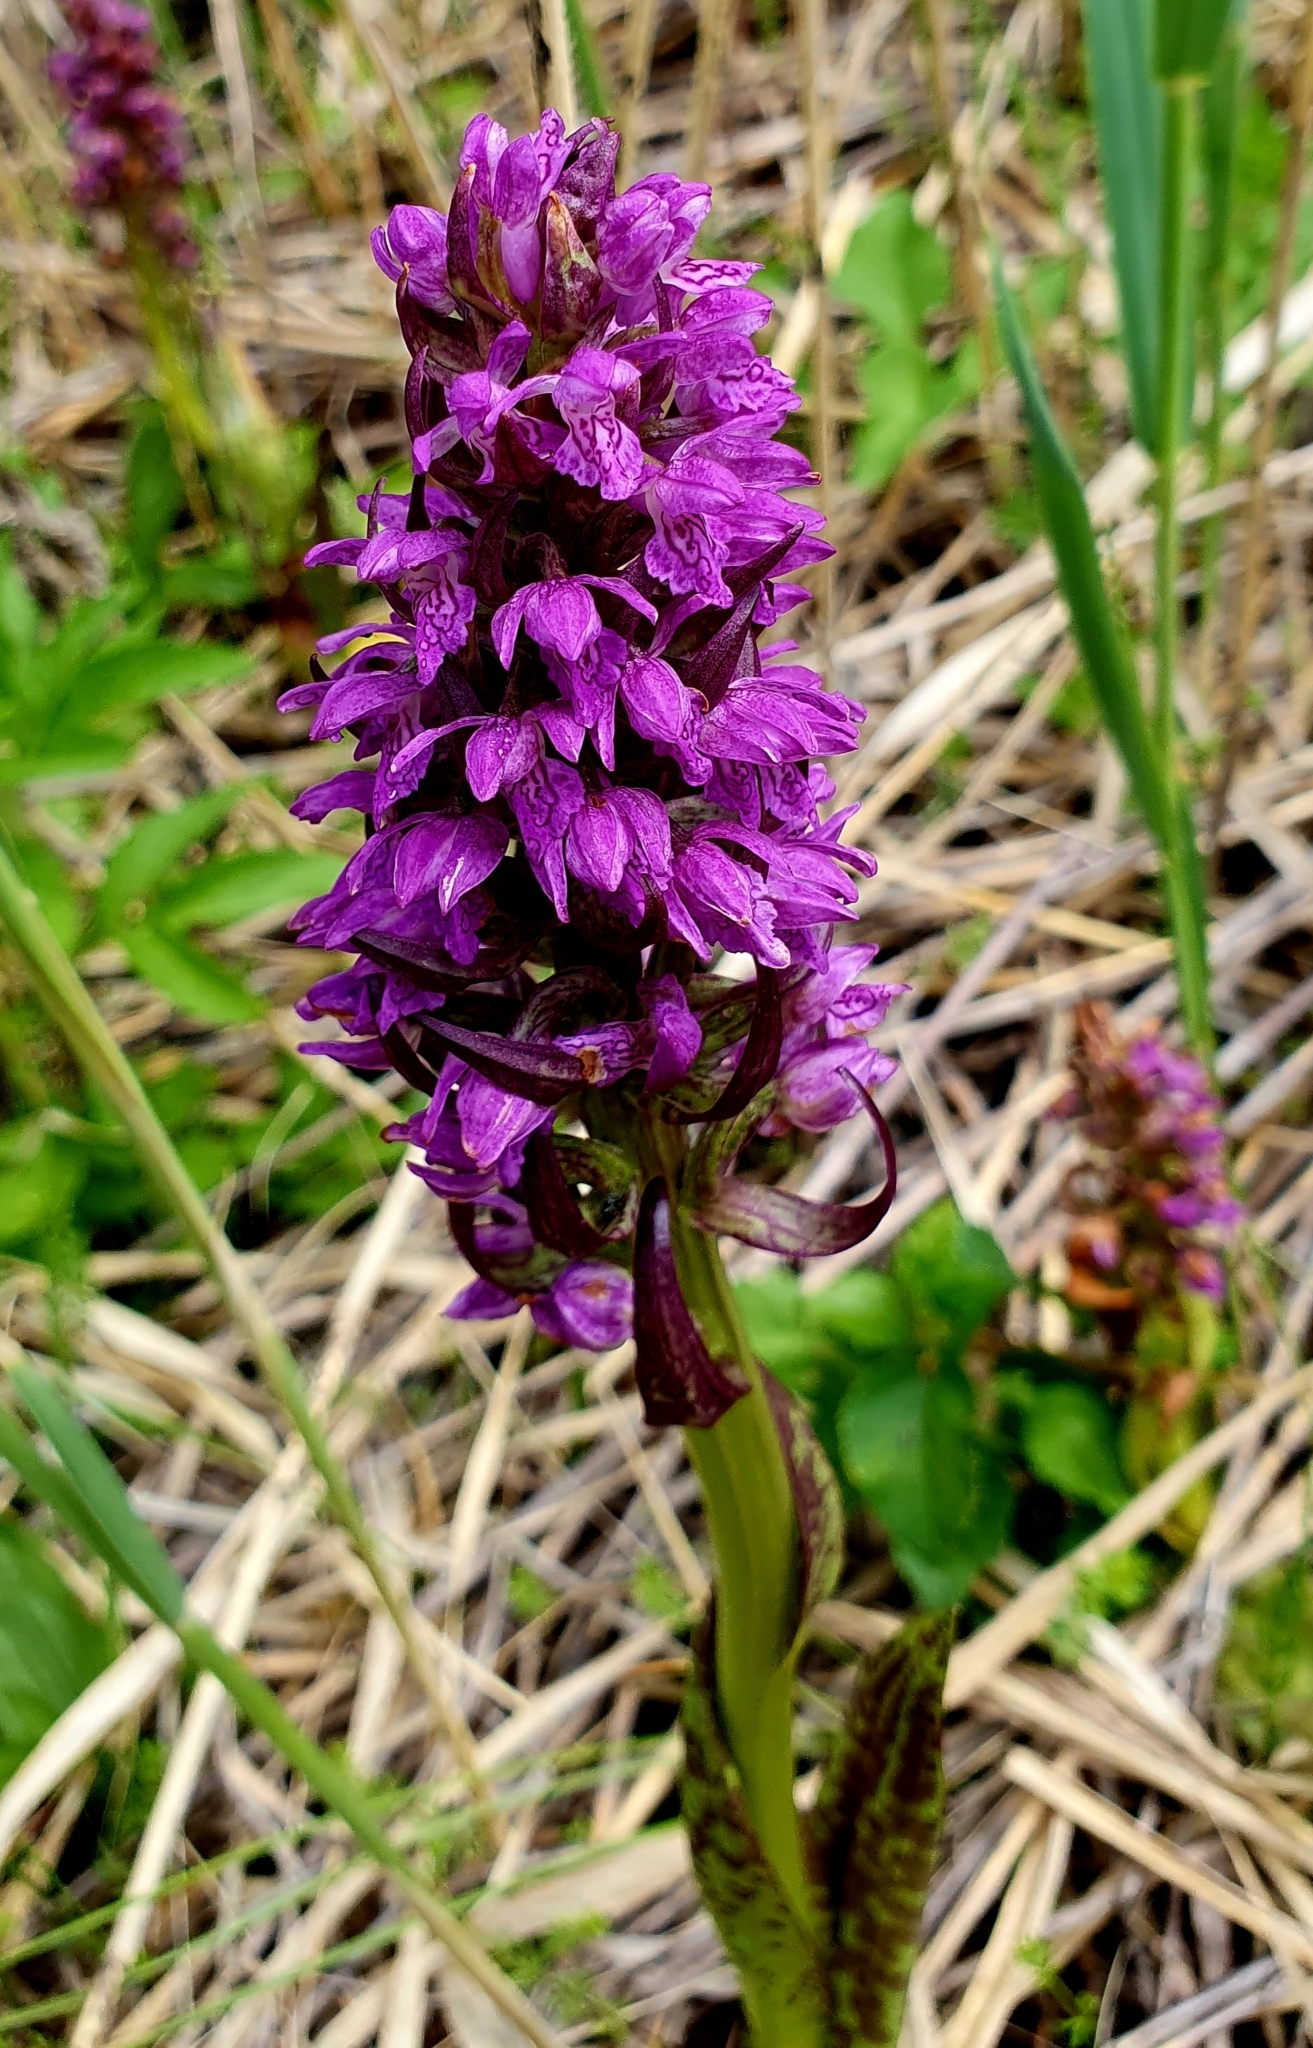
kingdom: Plantae
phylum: Tracheophyta
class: Liliopsida
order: Asparagales
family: Orchidaceae
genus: Dactylorhiza
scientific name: Dactylorhiza incarnata
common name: Early marsh-orchid
